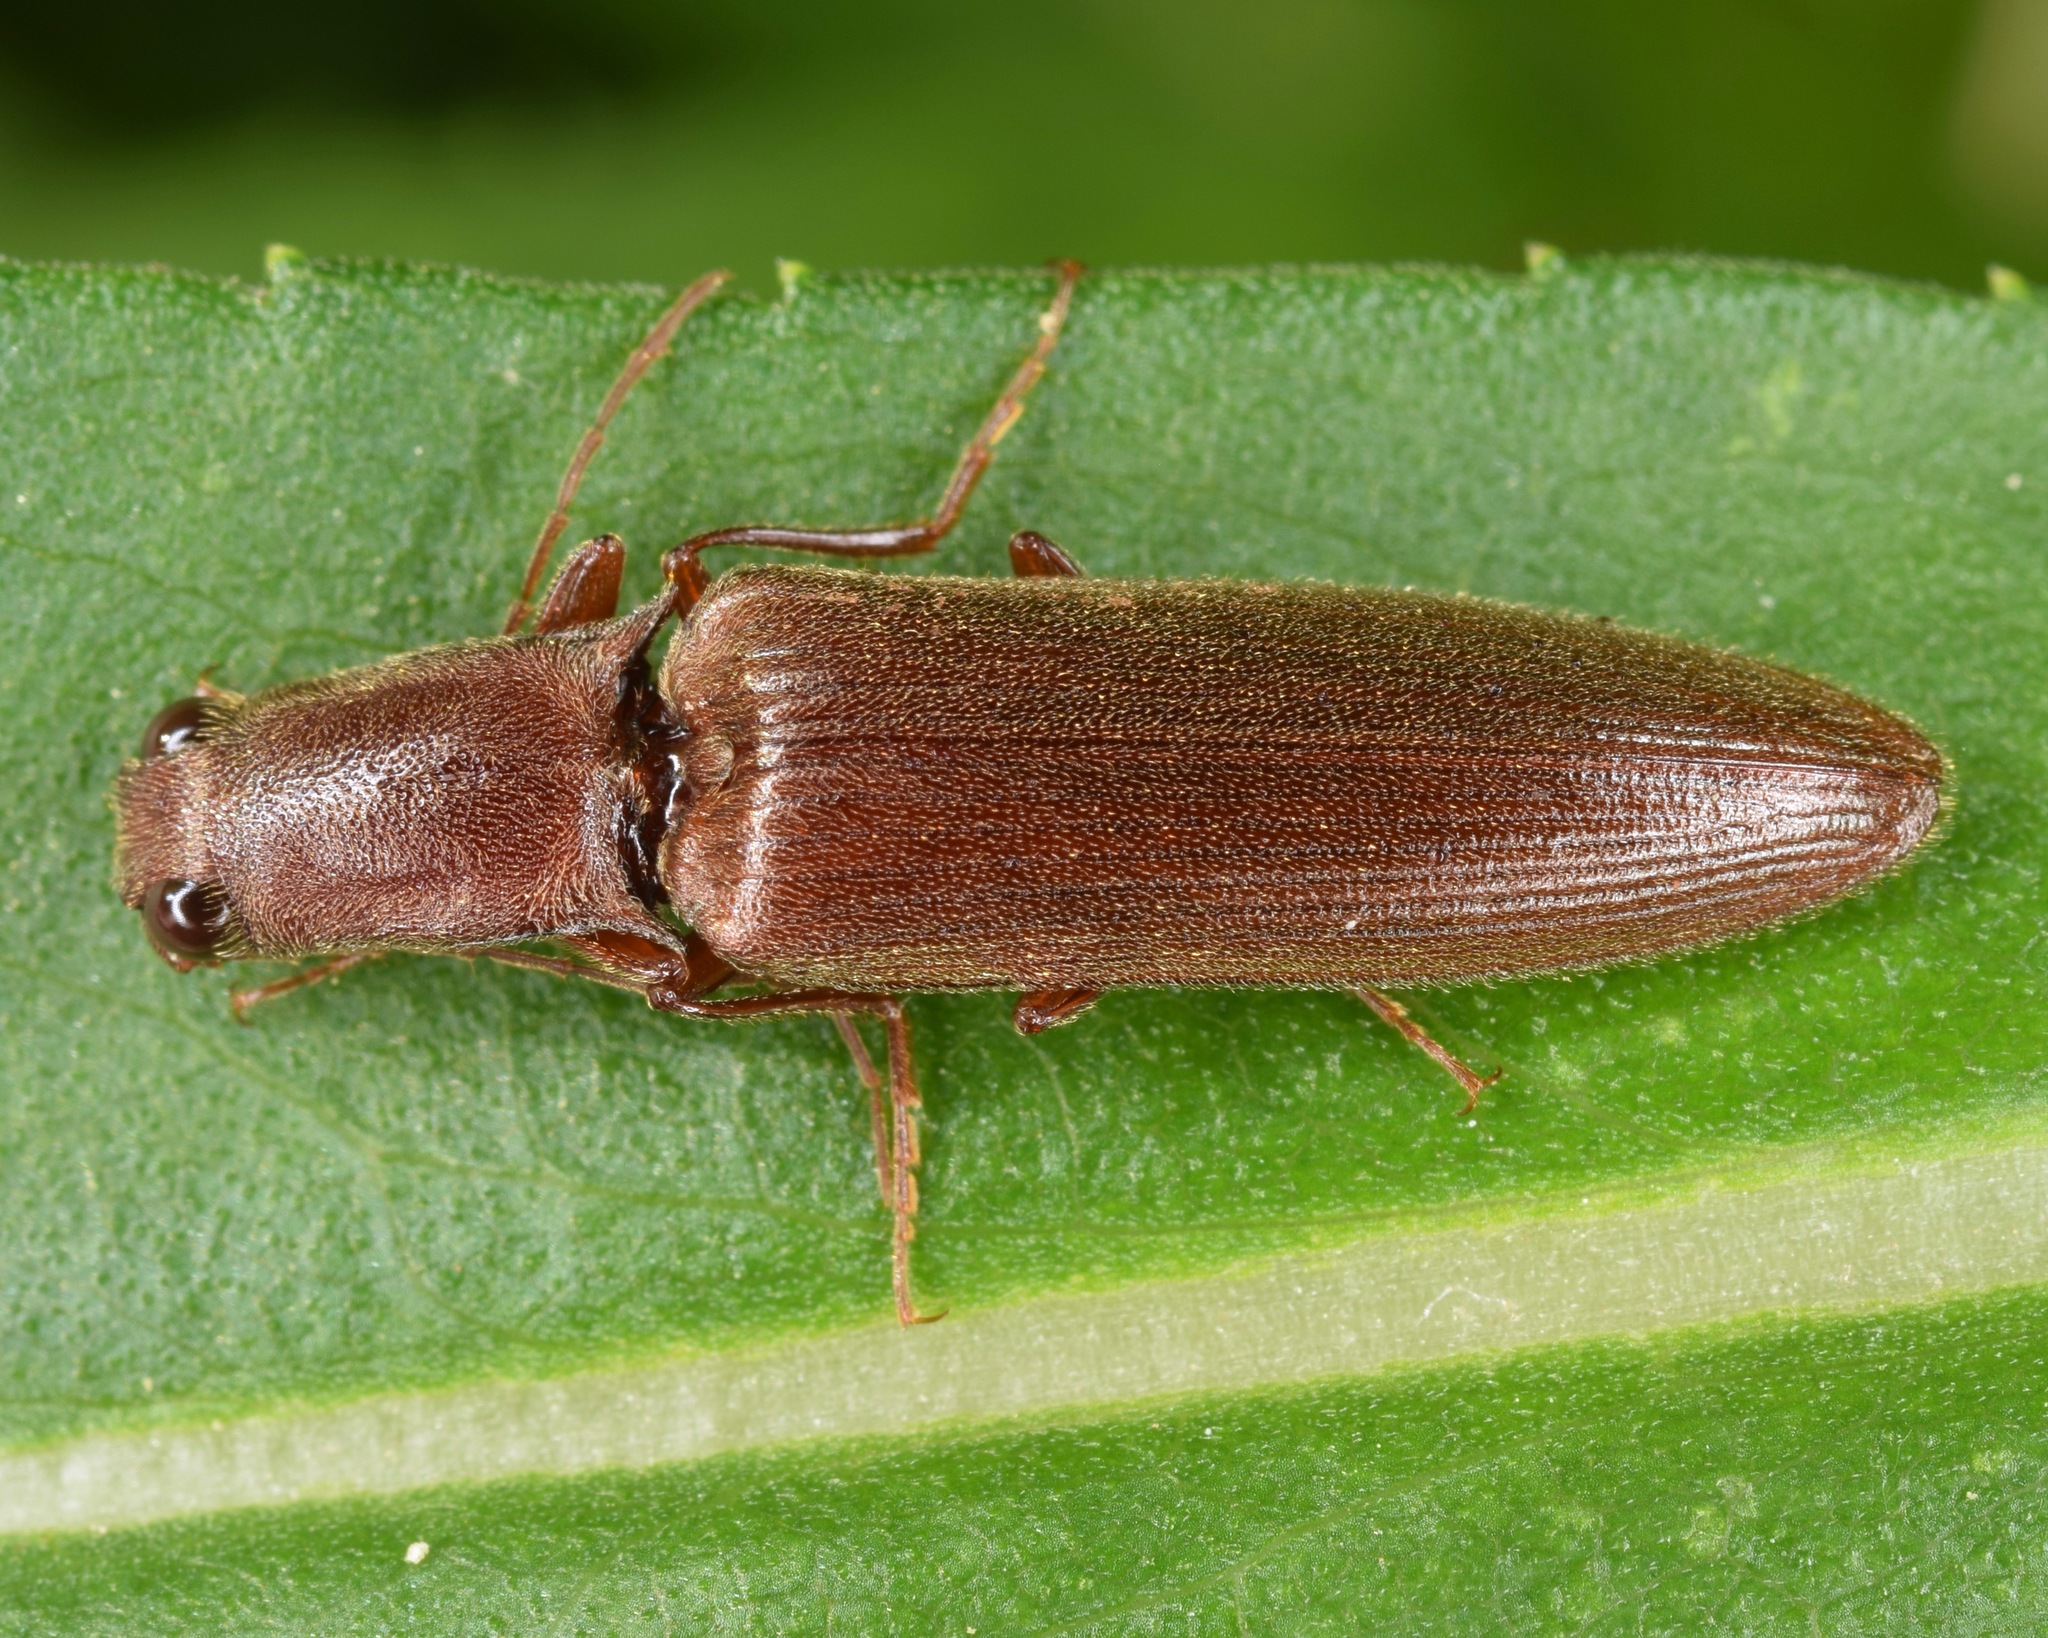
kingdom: Animalia
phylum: Arthropoda
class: Insecta
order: Coleoptera
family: Elateridae
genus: Proludius
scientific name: Proludius pyrros
